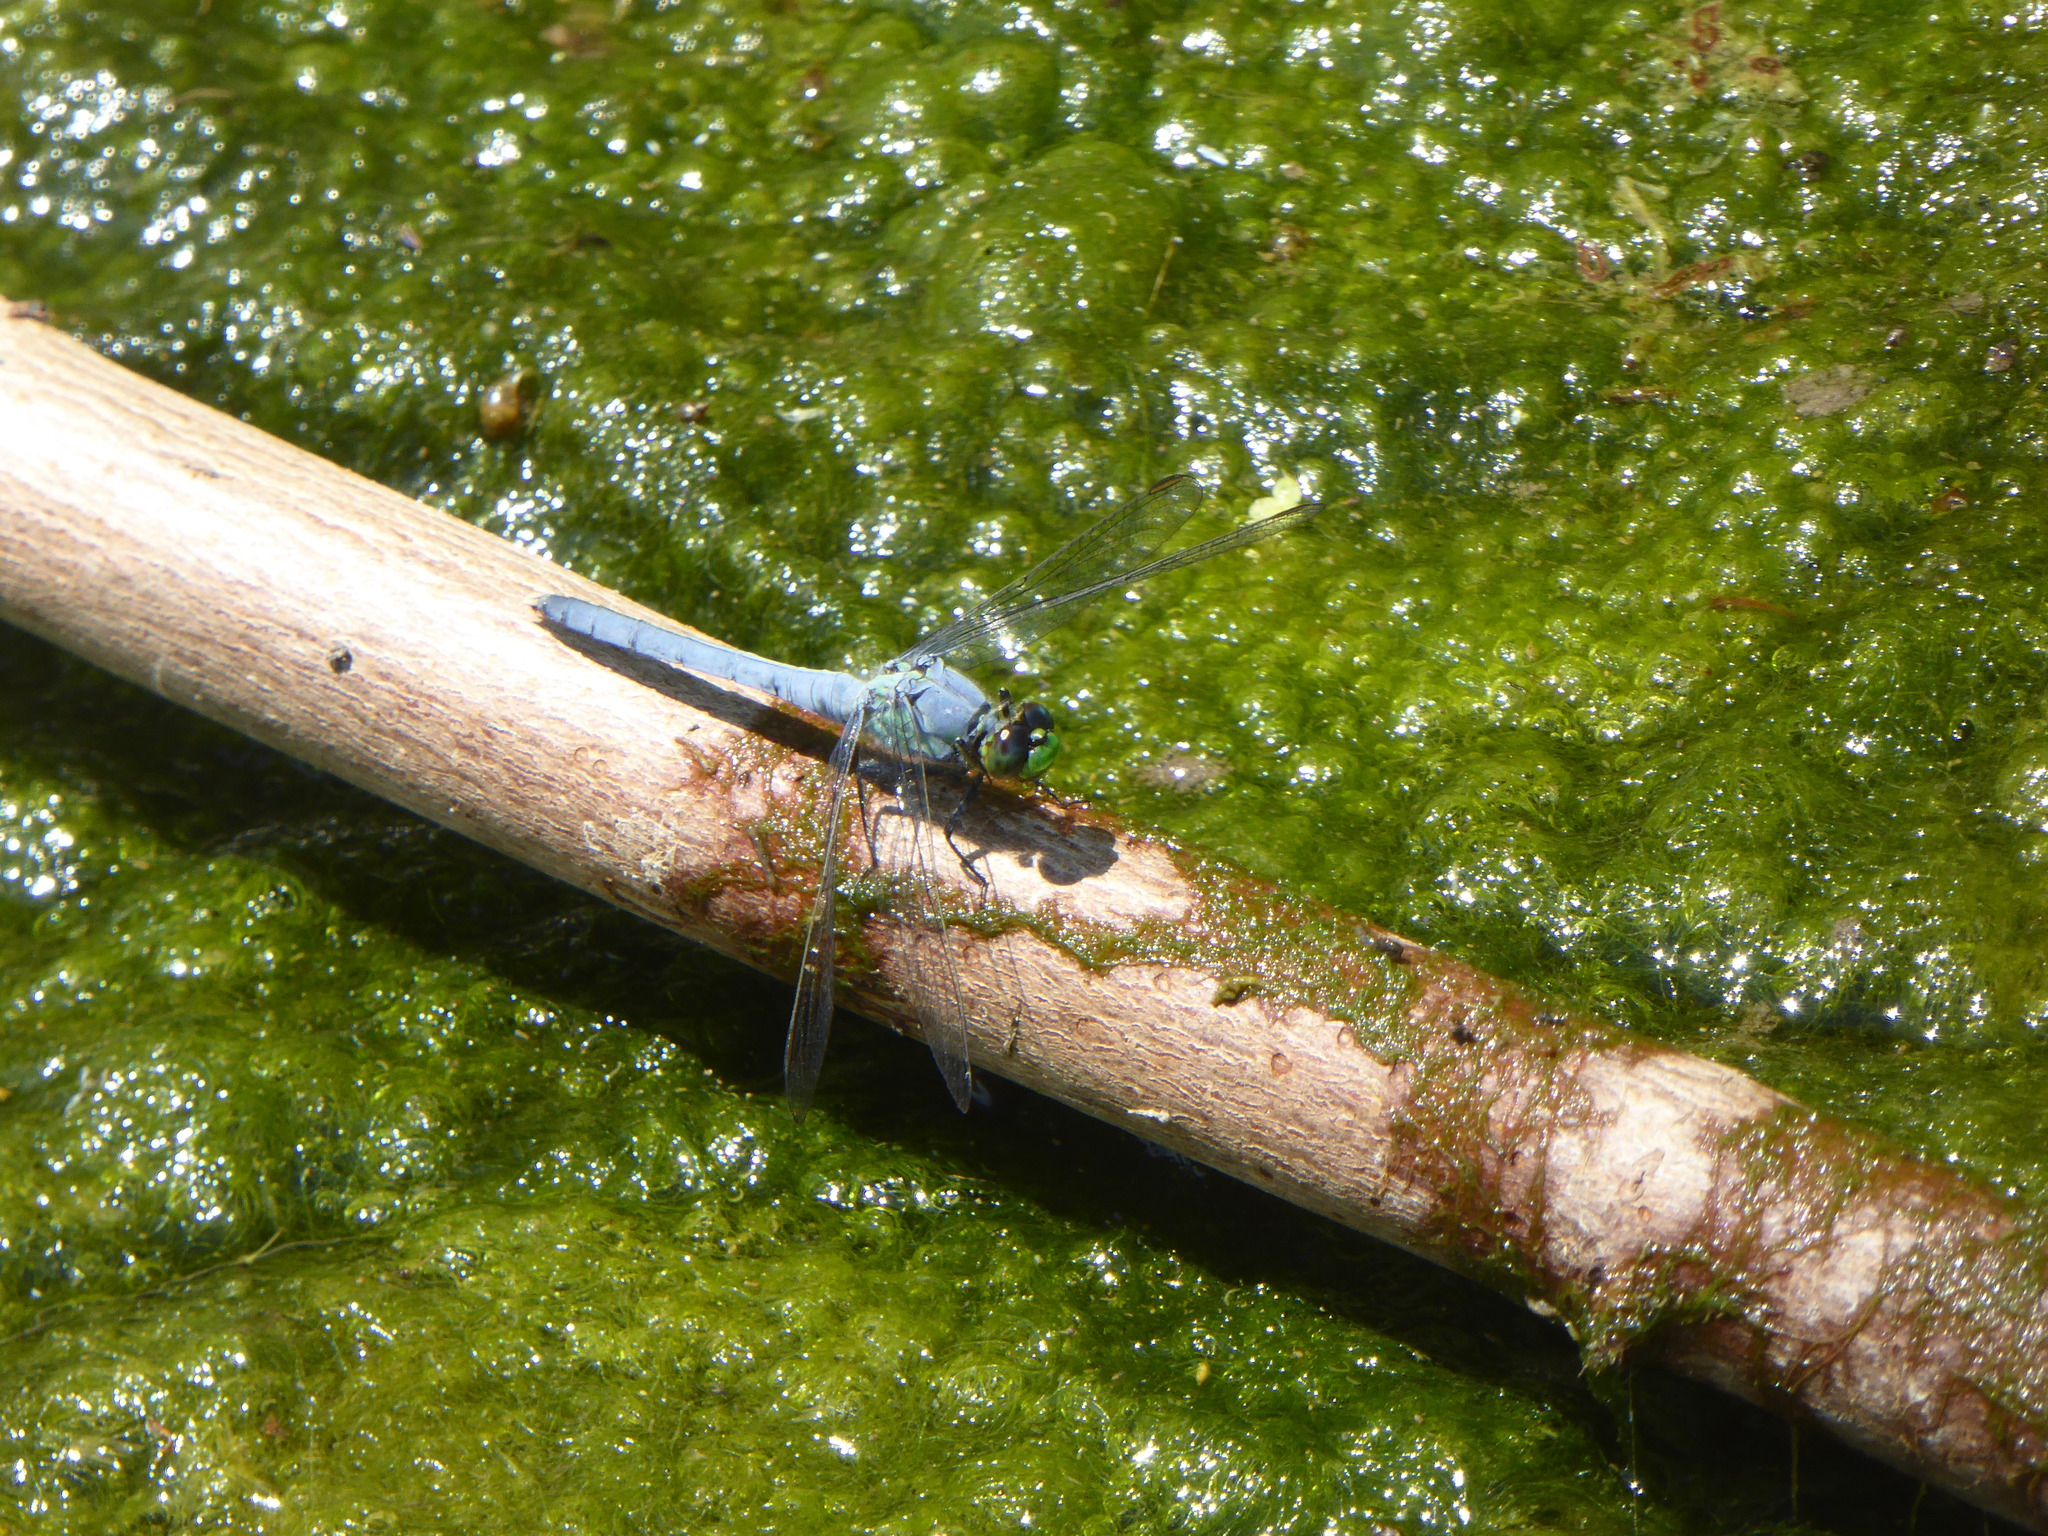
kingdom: Animalia
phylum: Arthropoda
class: Insecta
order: Odonata
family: Libellulidae
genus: Erythemis
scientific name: Erythemis simplicicollis
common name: Eastern pondhawk
